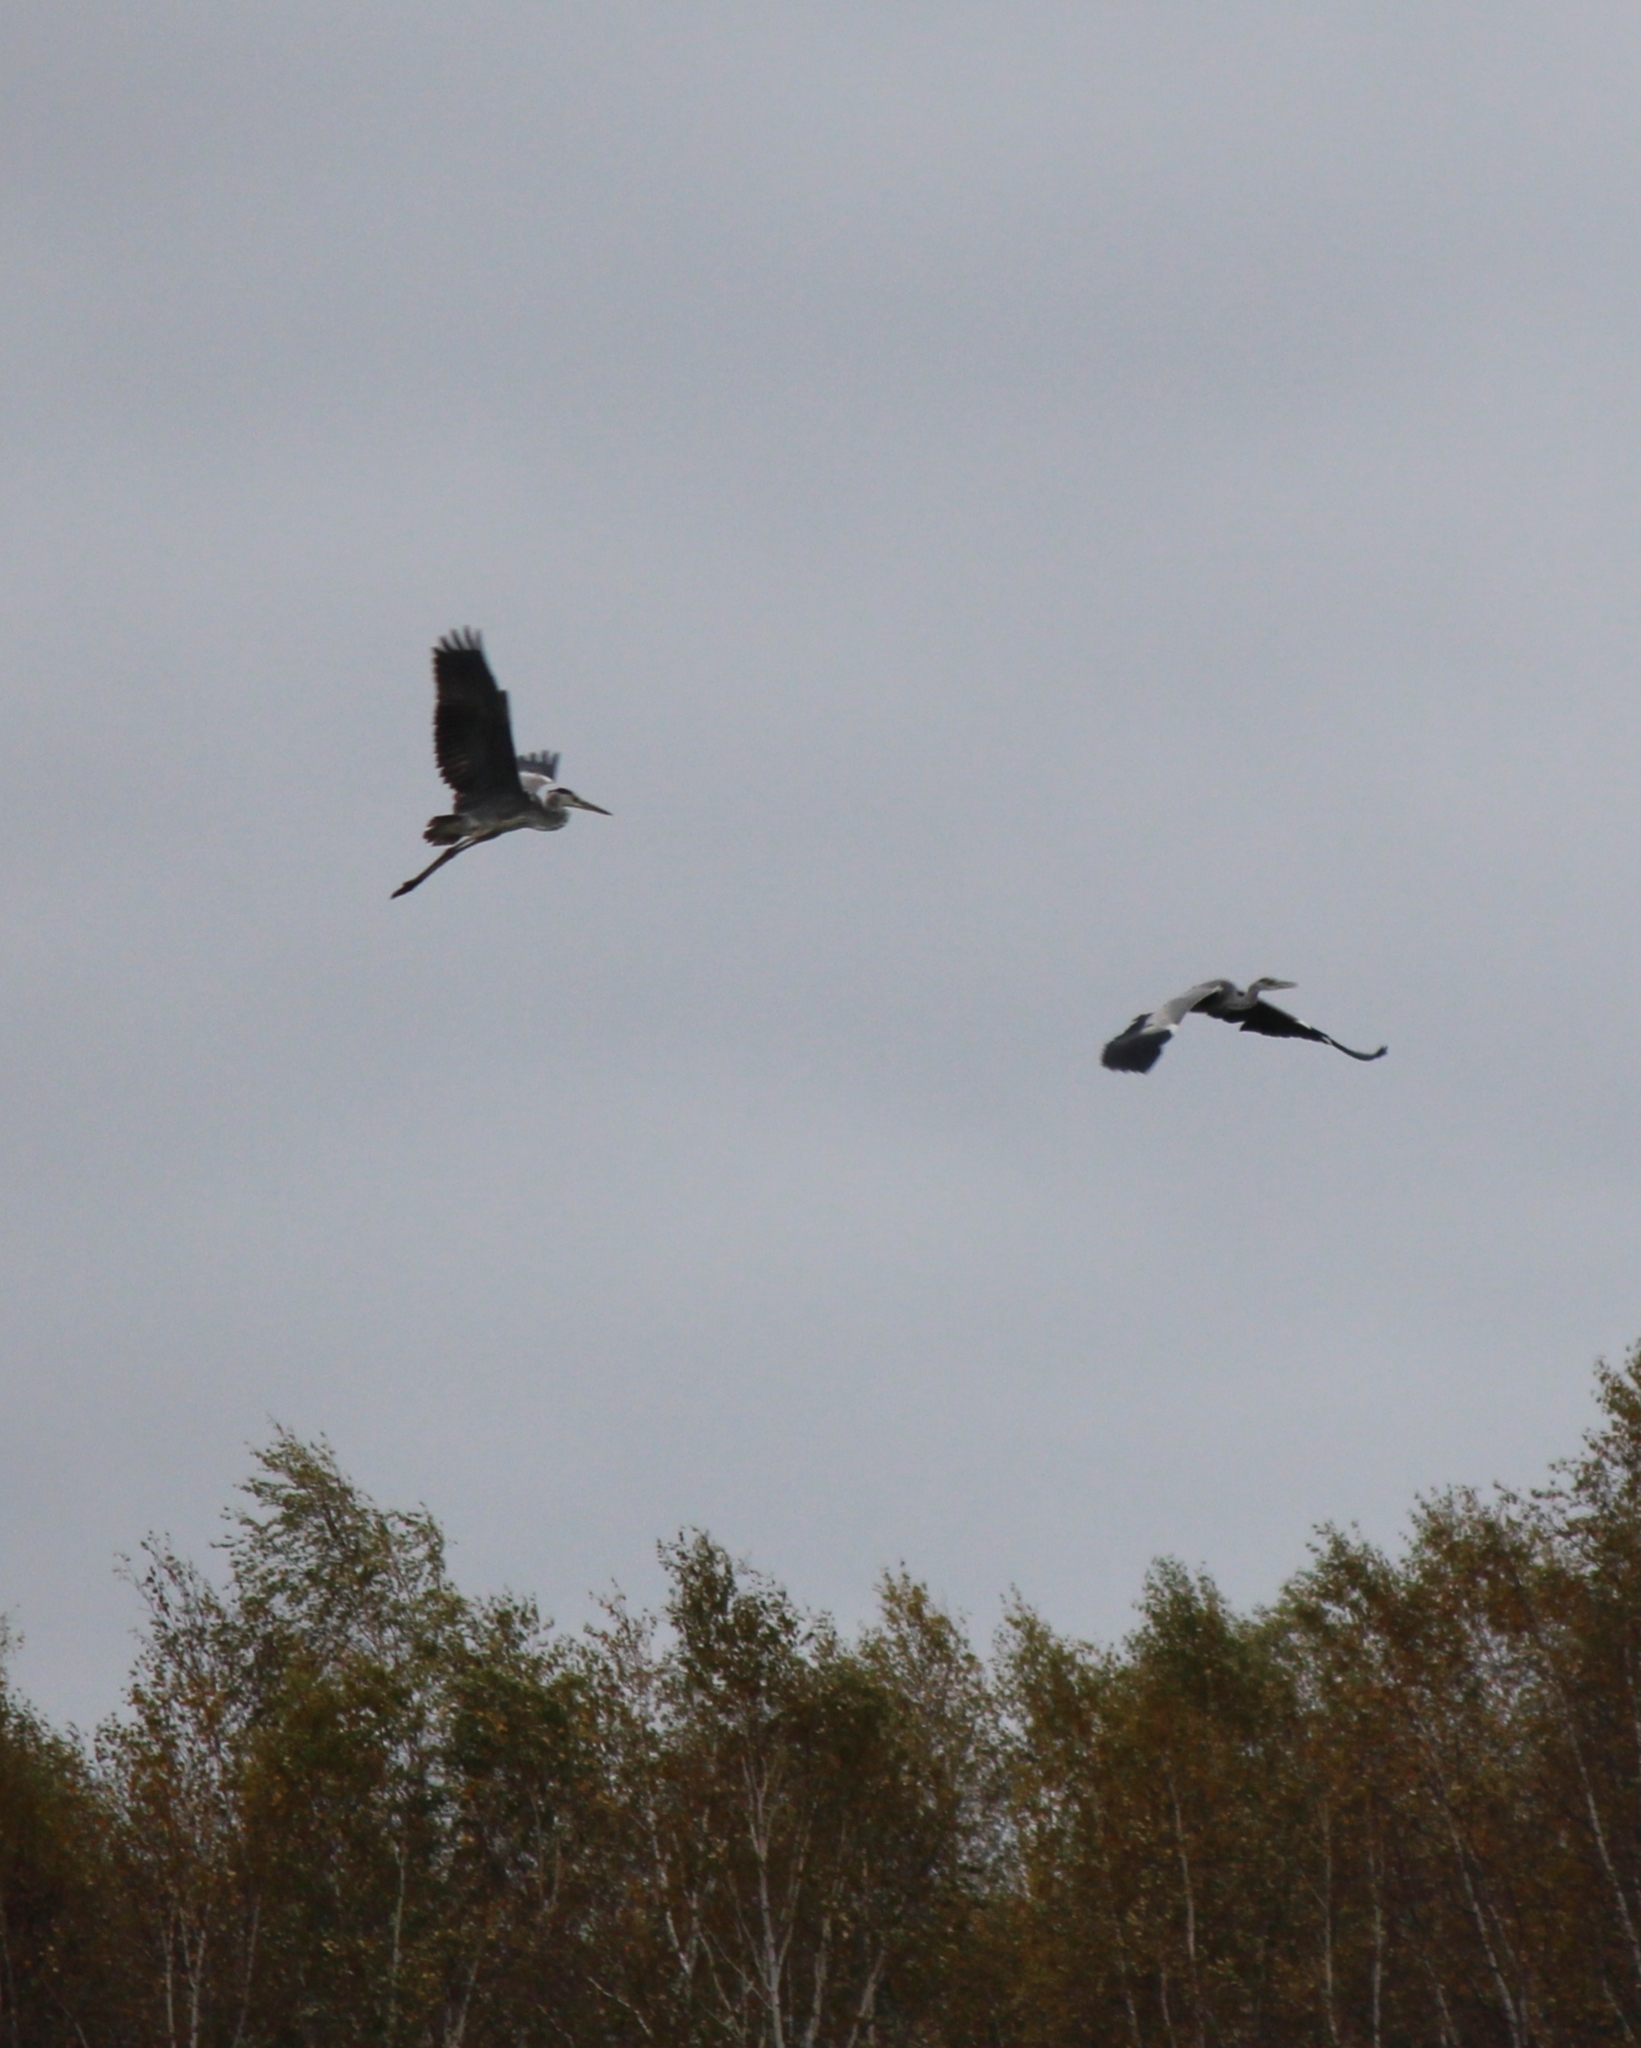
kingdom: Animalia
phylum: Chordata
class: Aves
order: Pelecaniformes
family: Ardeidae
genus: Ardea
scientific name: Ardea cinerea
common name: Grey heron
